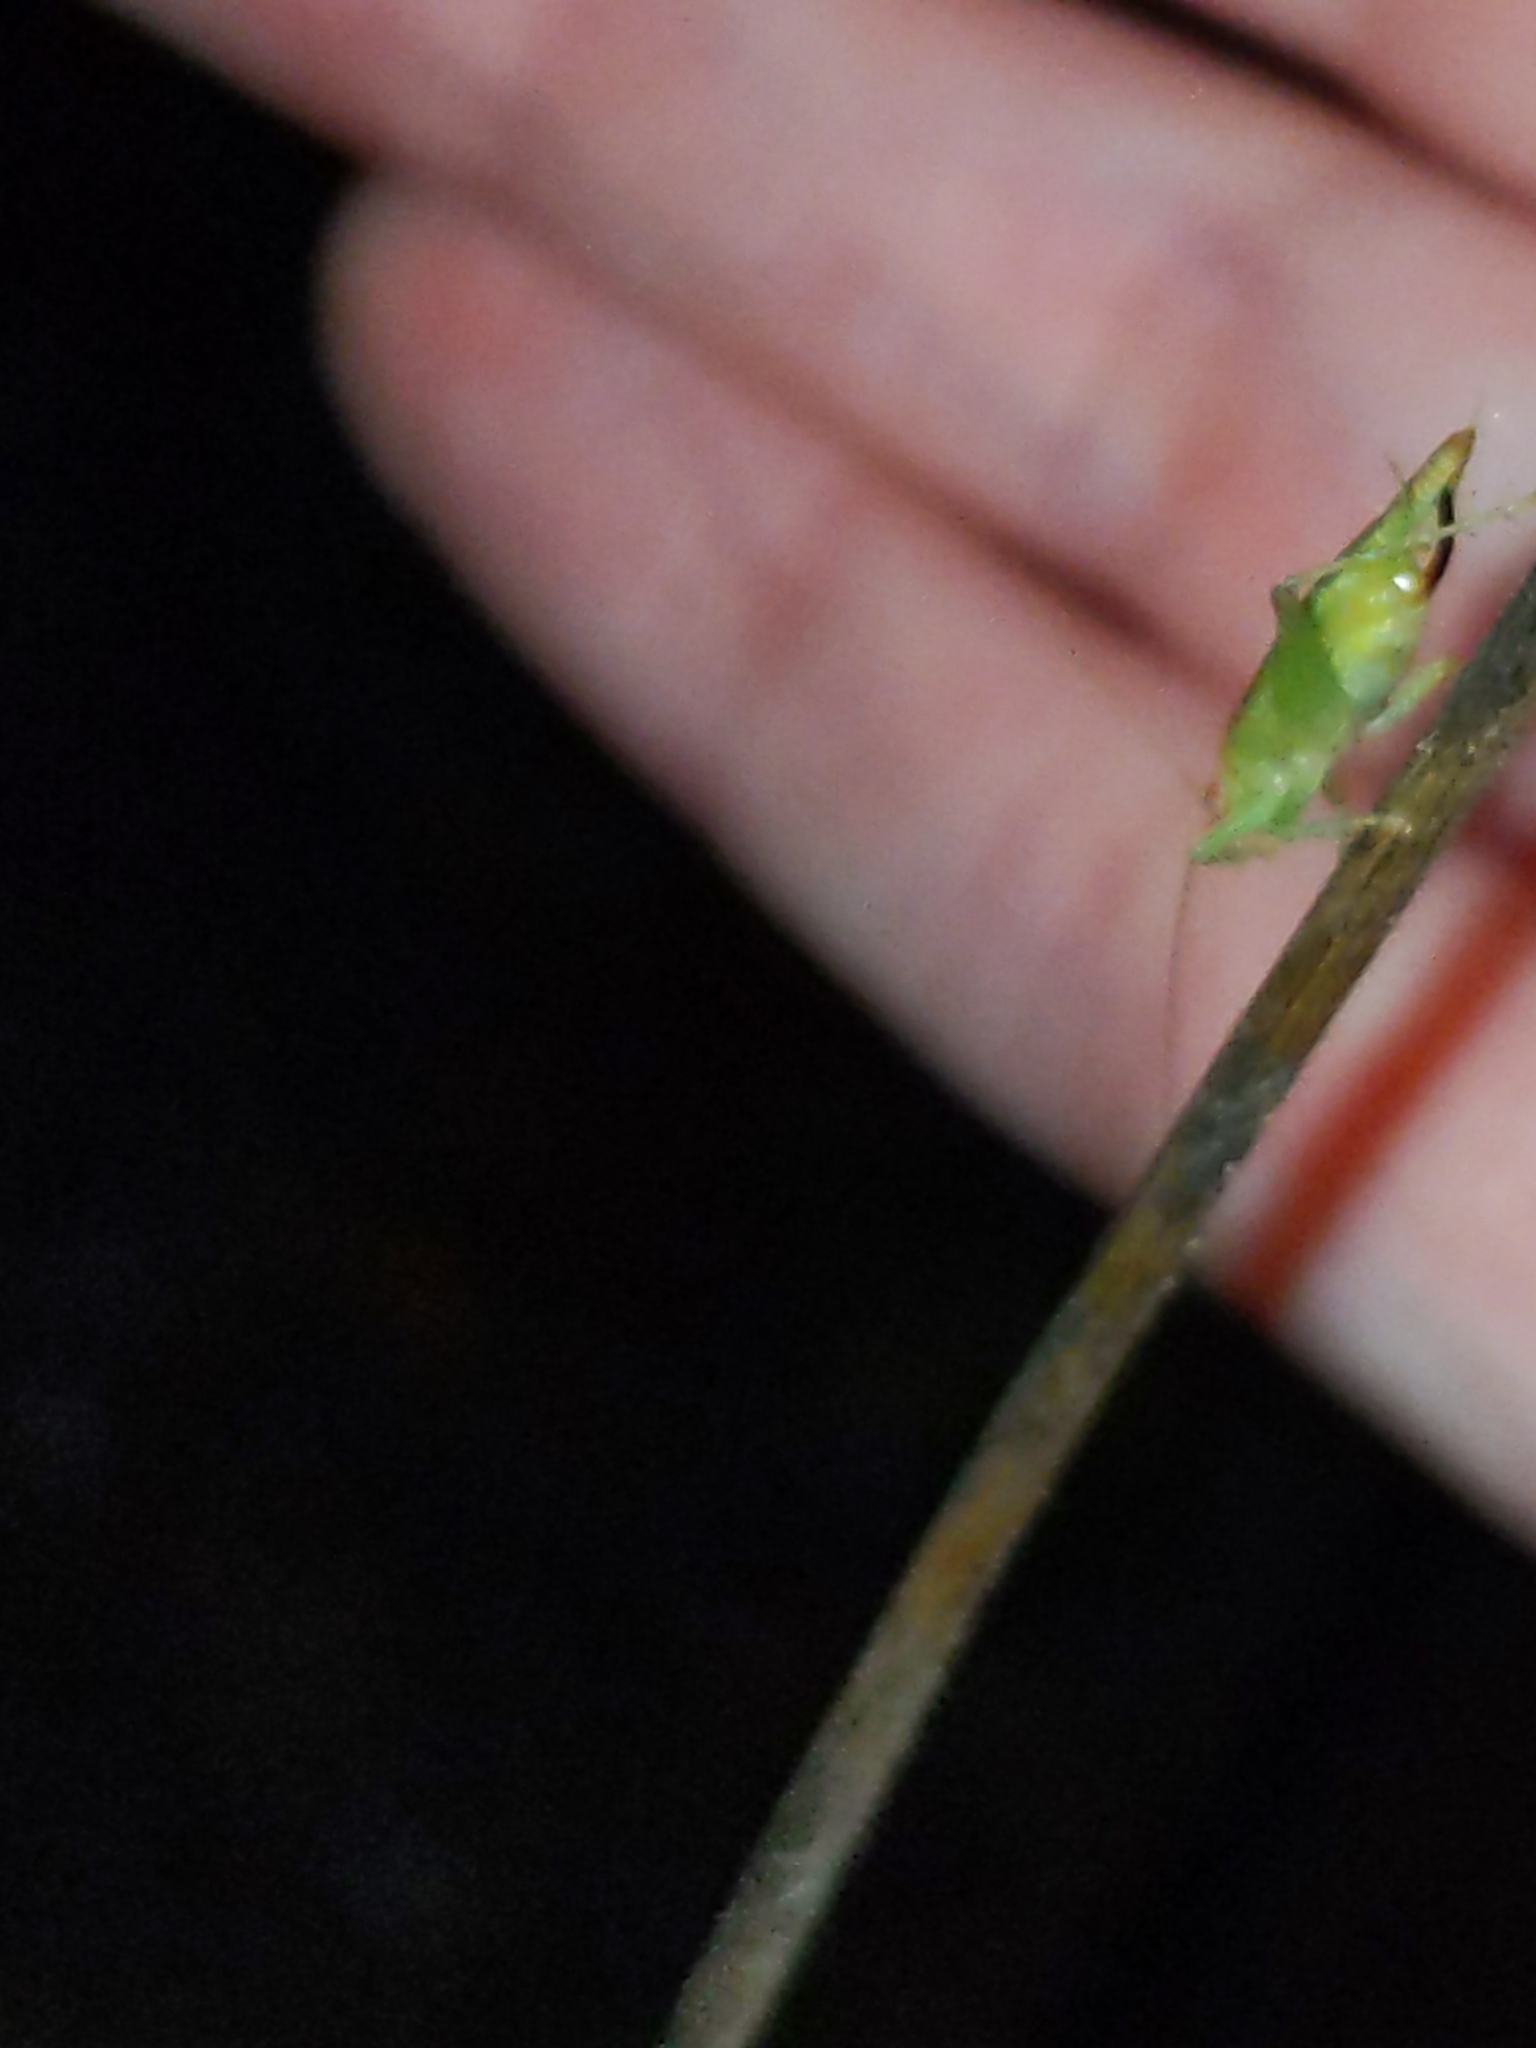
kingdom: Animalia
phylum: Arthropoda
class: Insecta
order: Orthoptera
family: Trigonidiidae
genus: Cyrtoxipha
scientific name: Cyrtoxipha columbiana
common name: Columbian trig
